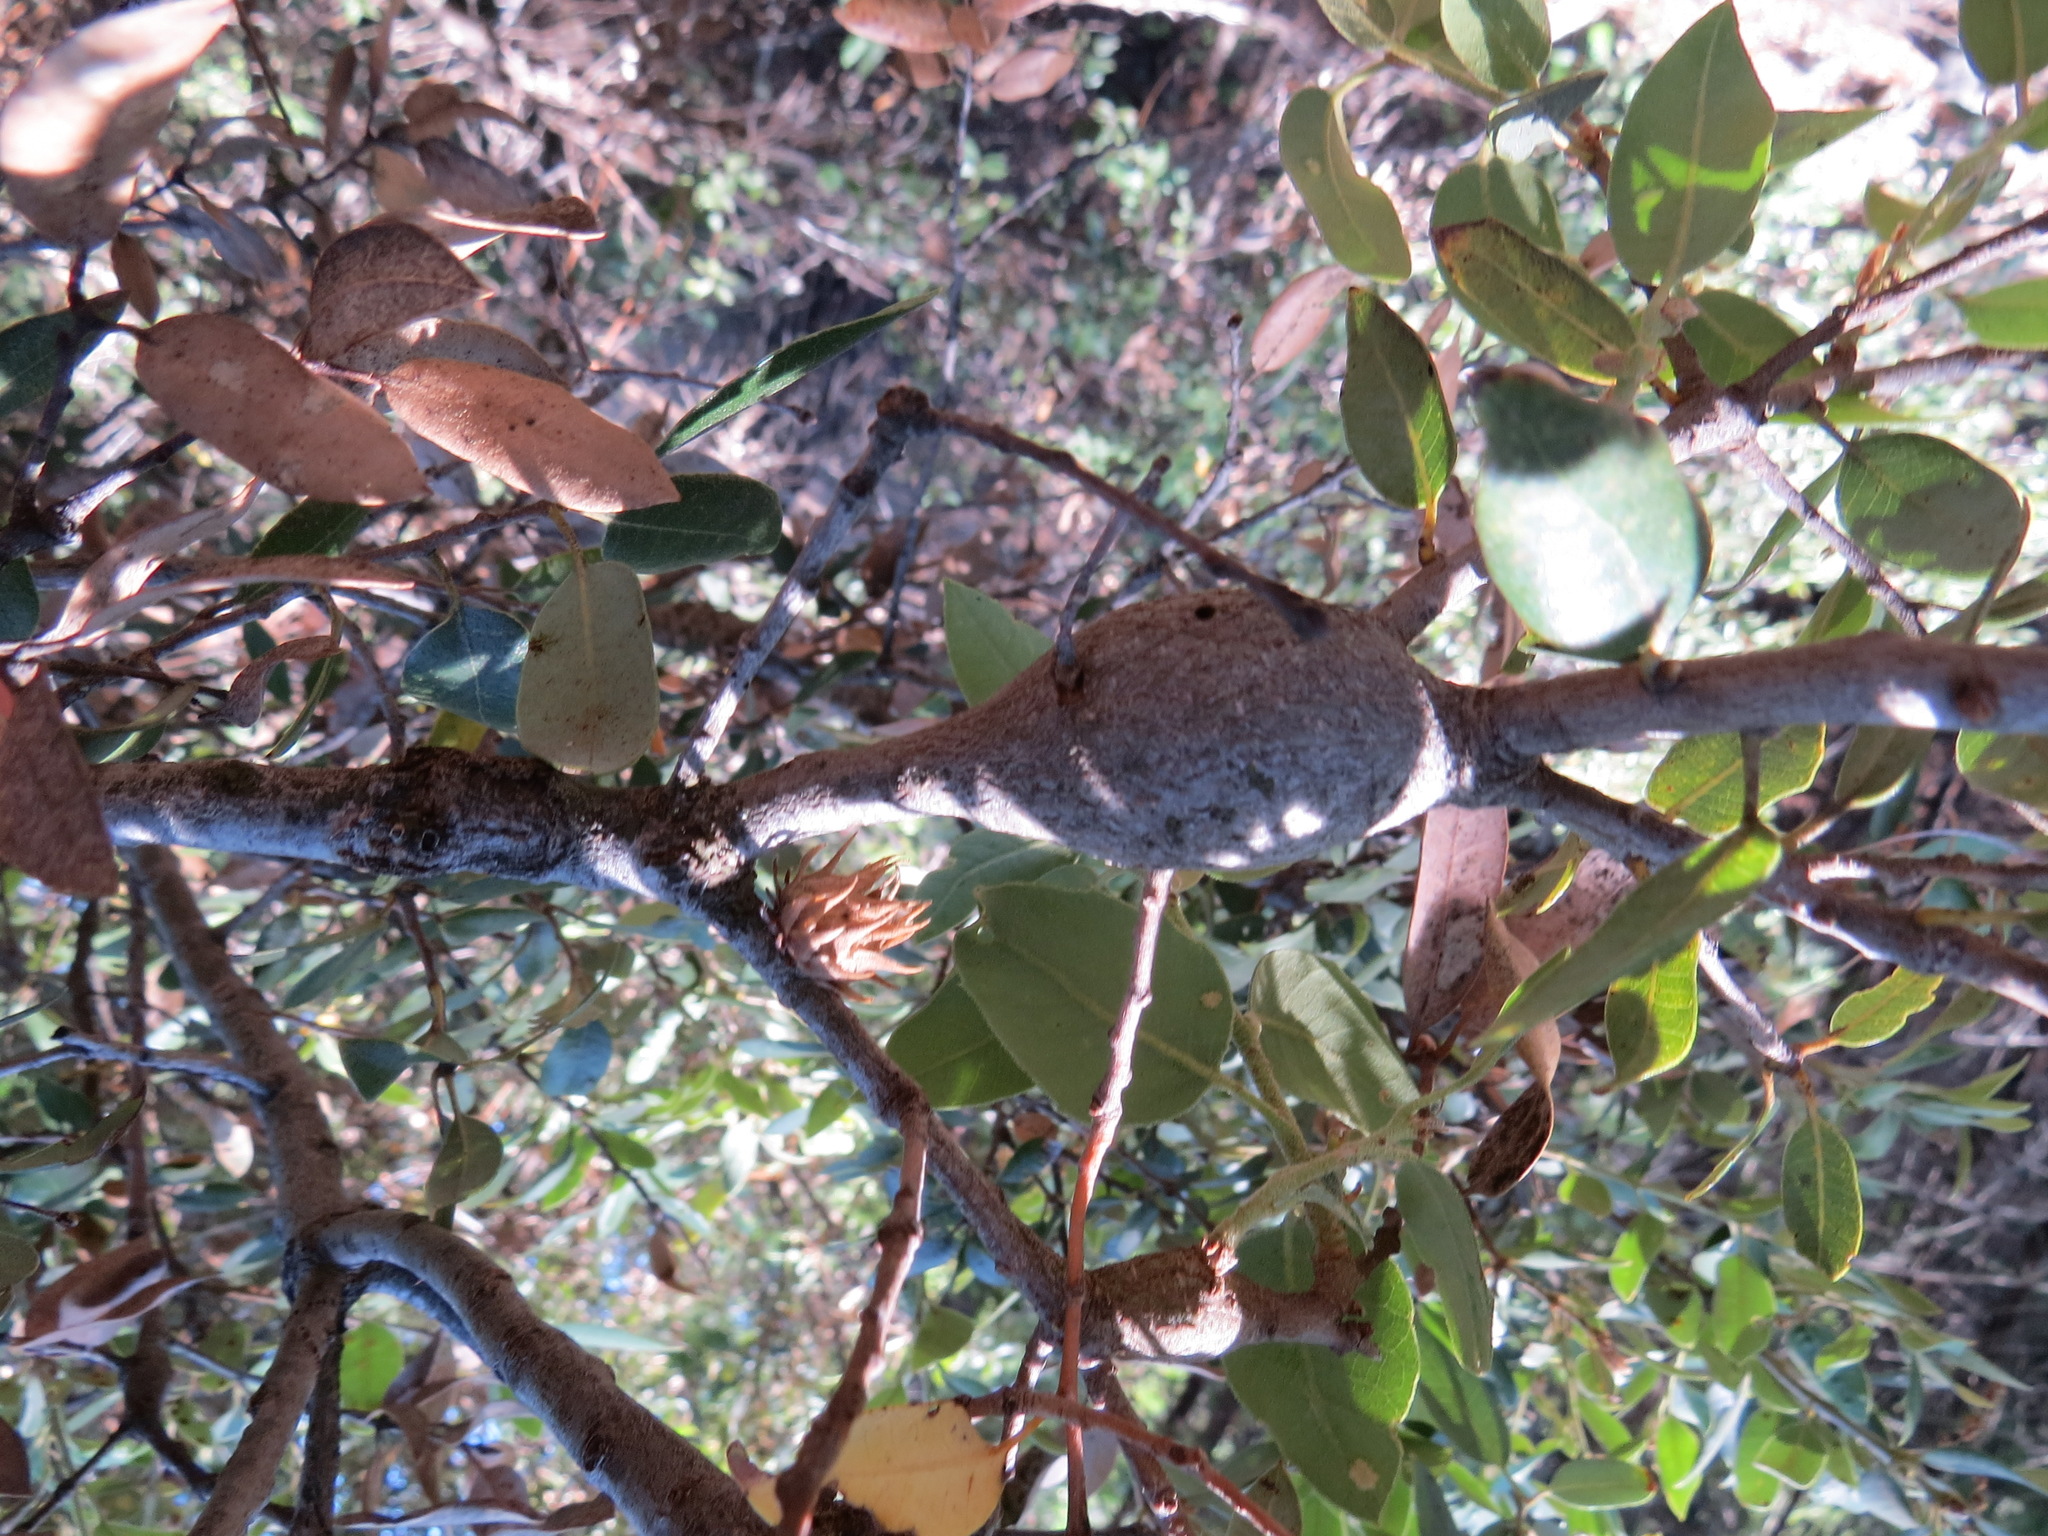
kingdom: Animalia
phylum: Arthropoda
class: Insecta
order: Hymenoptera
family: Cynipidae
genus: Andricus
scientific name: Andricus
